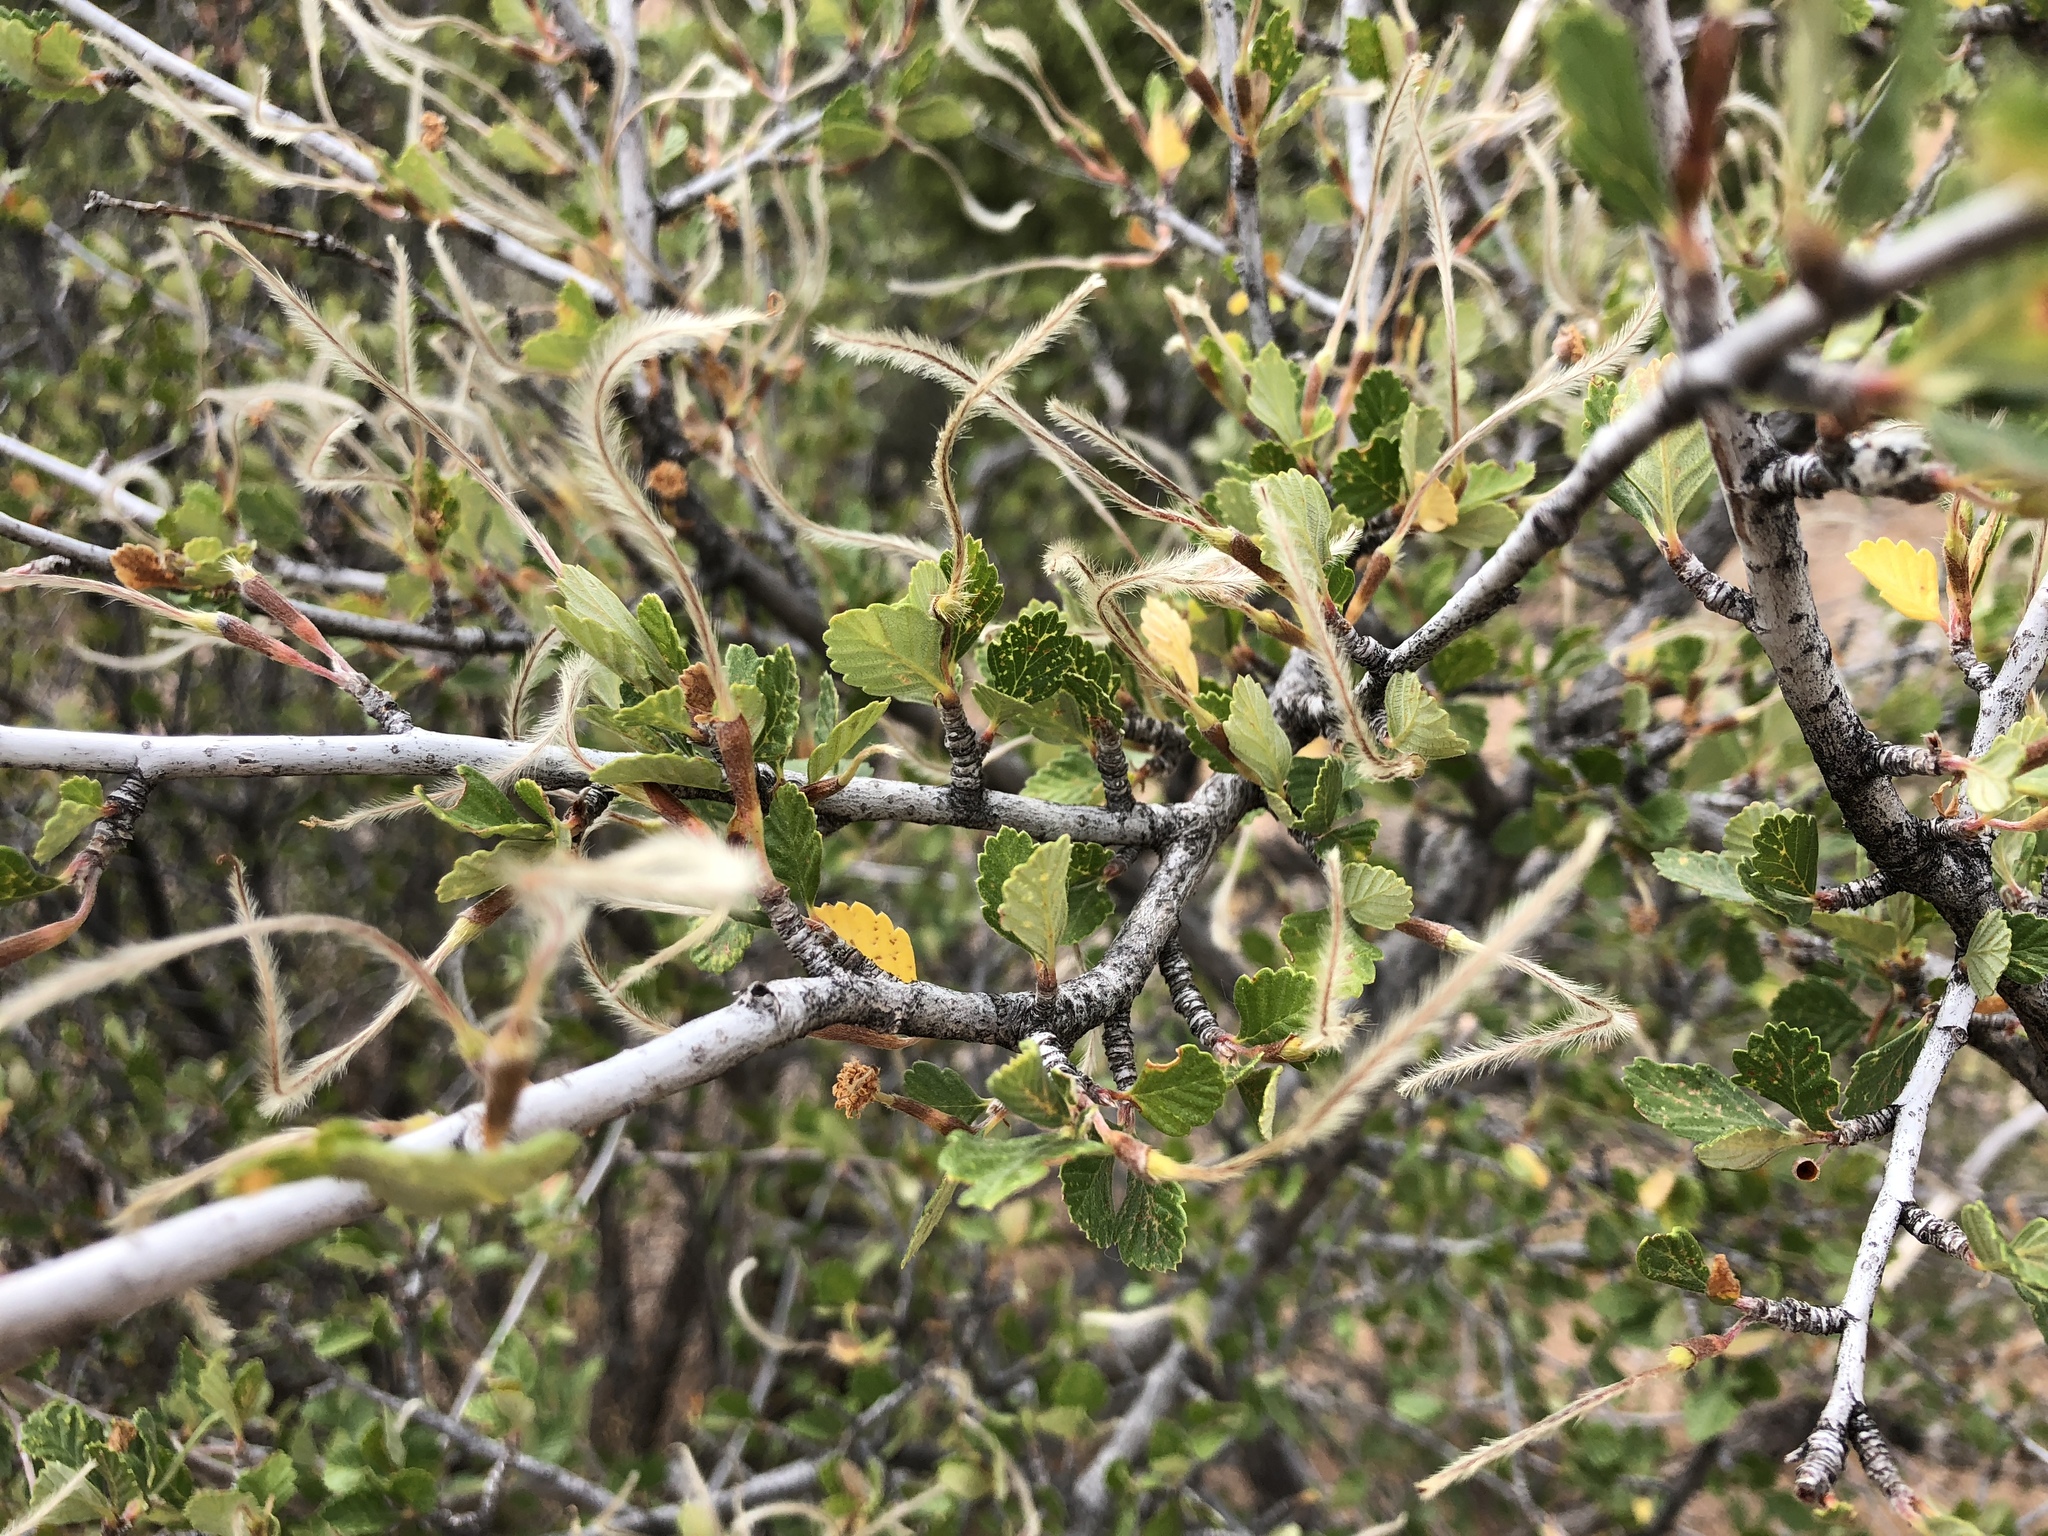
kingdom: Plantae
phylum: Tracheophyta
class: Magnoliopsida
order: Rosales
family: Rosaceae
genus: Cercocarpus
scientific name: Cercocarpus montanus
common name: Alder-leaf cercocarpus
